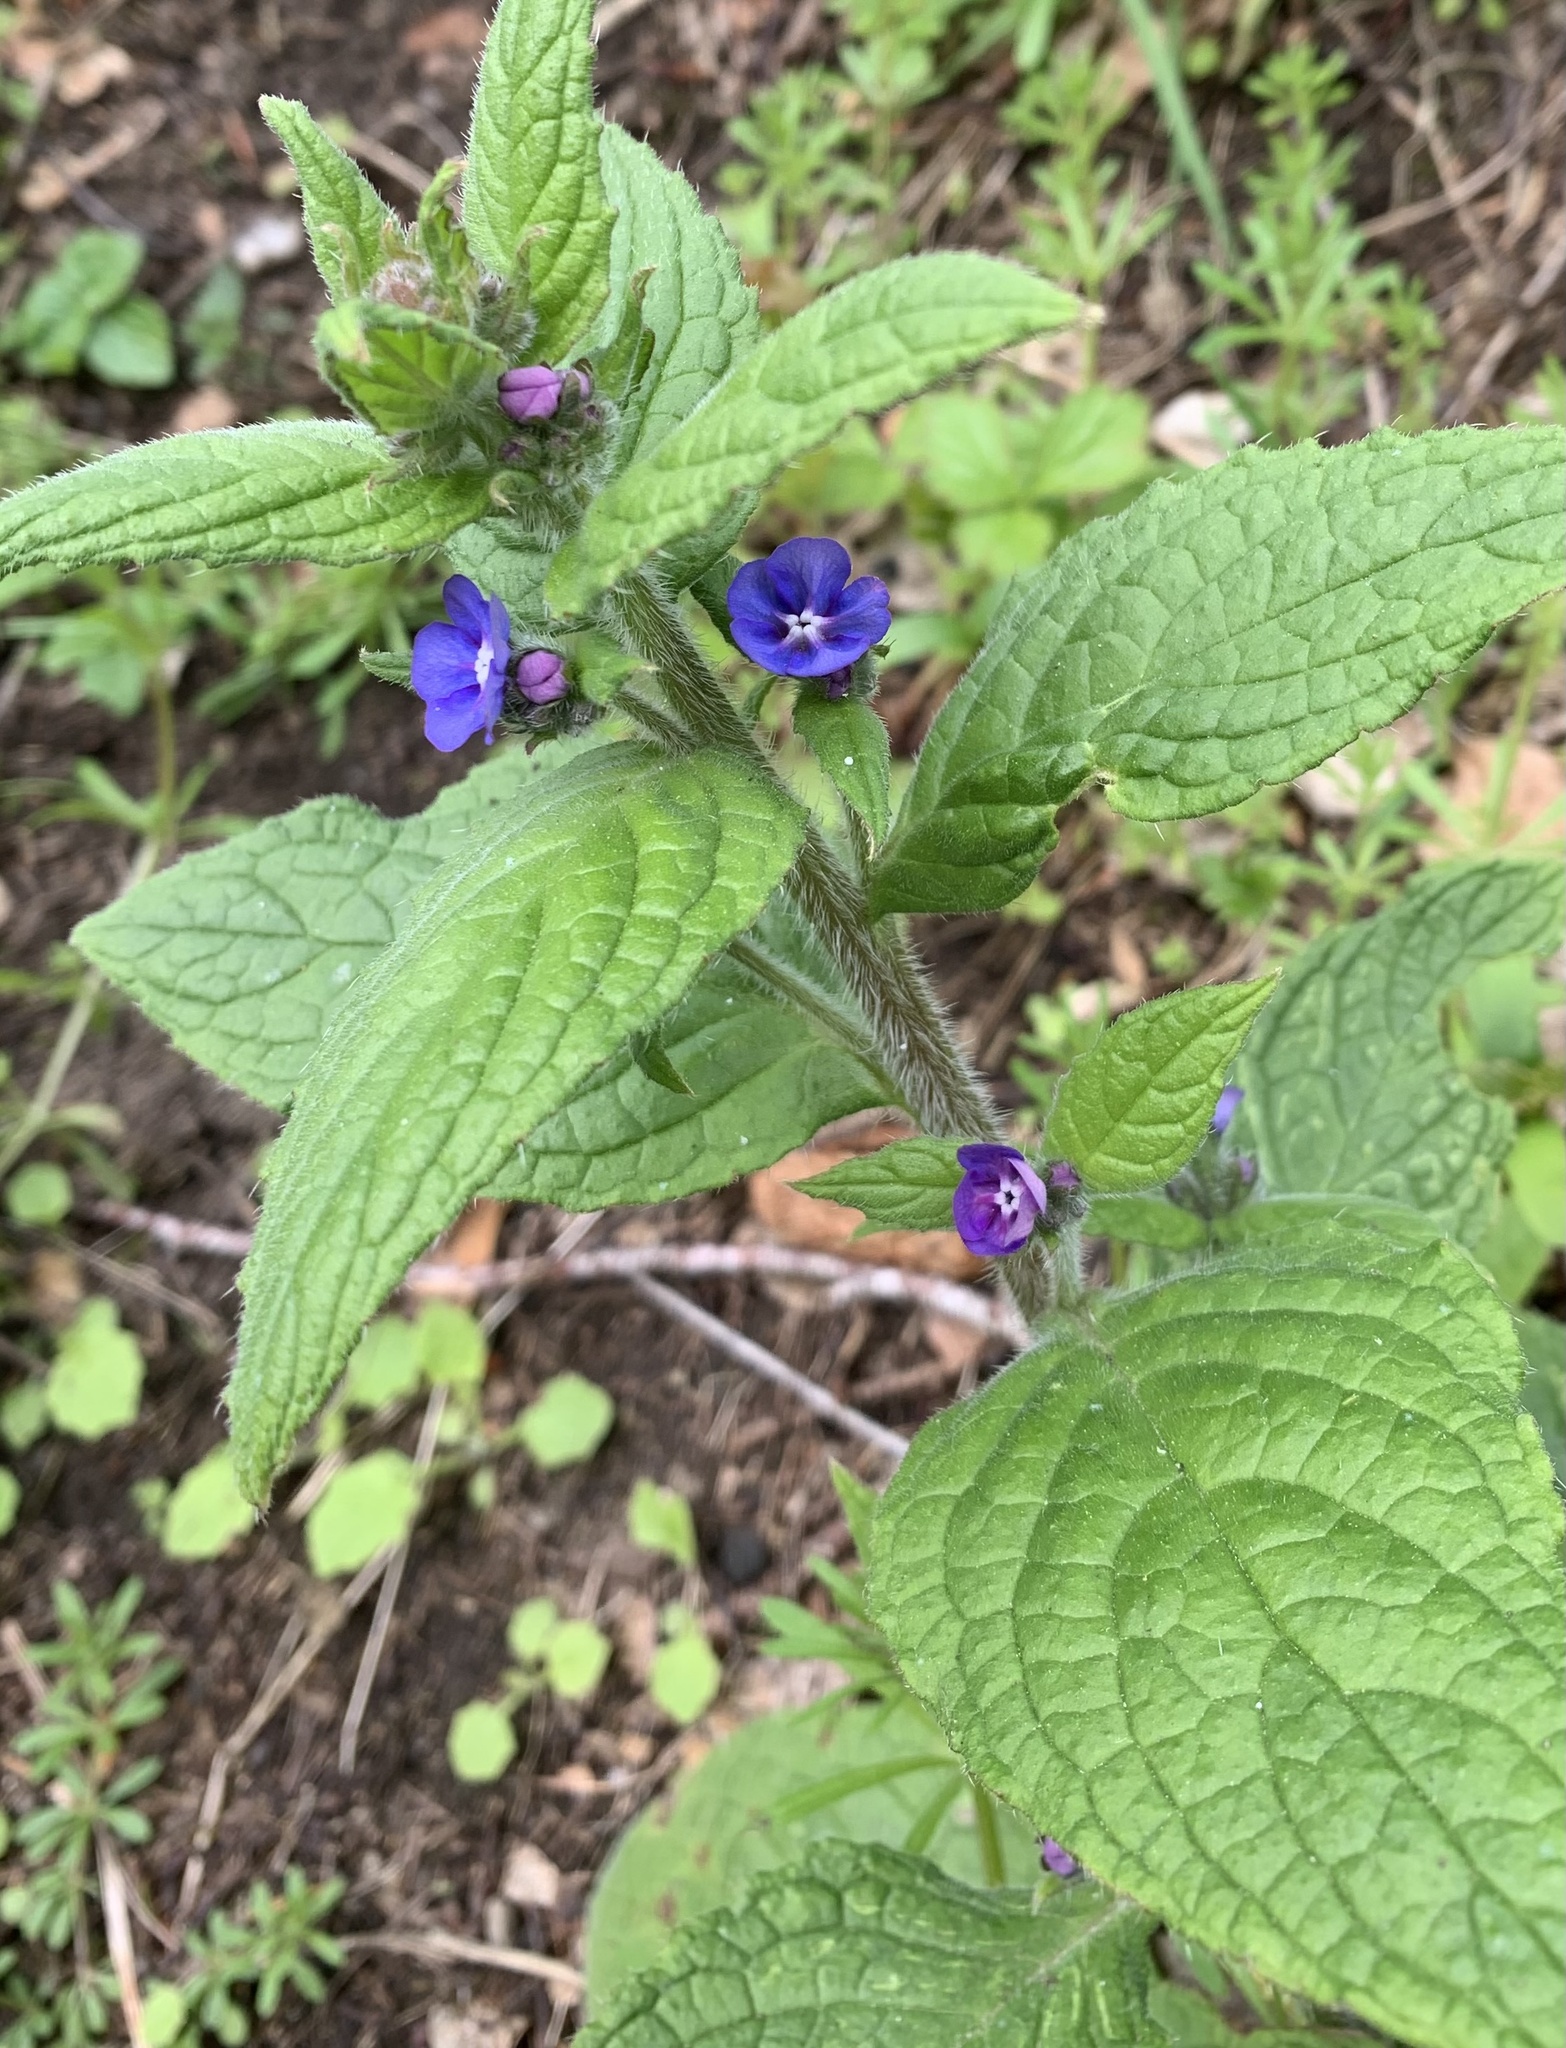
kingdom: Plantae
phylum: Tracheophyta
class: Magnoliopsida
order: Boraginales
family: Boraginaceae
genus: Pentaglottis
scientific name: Pentaglottis sempervirens
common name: Green alkanet
